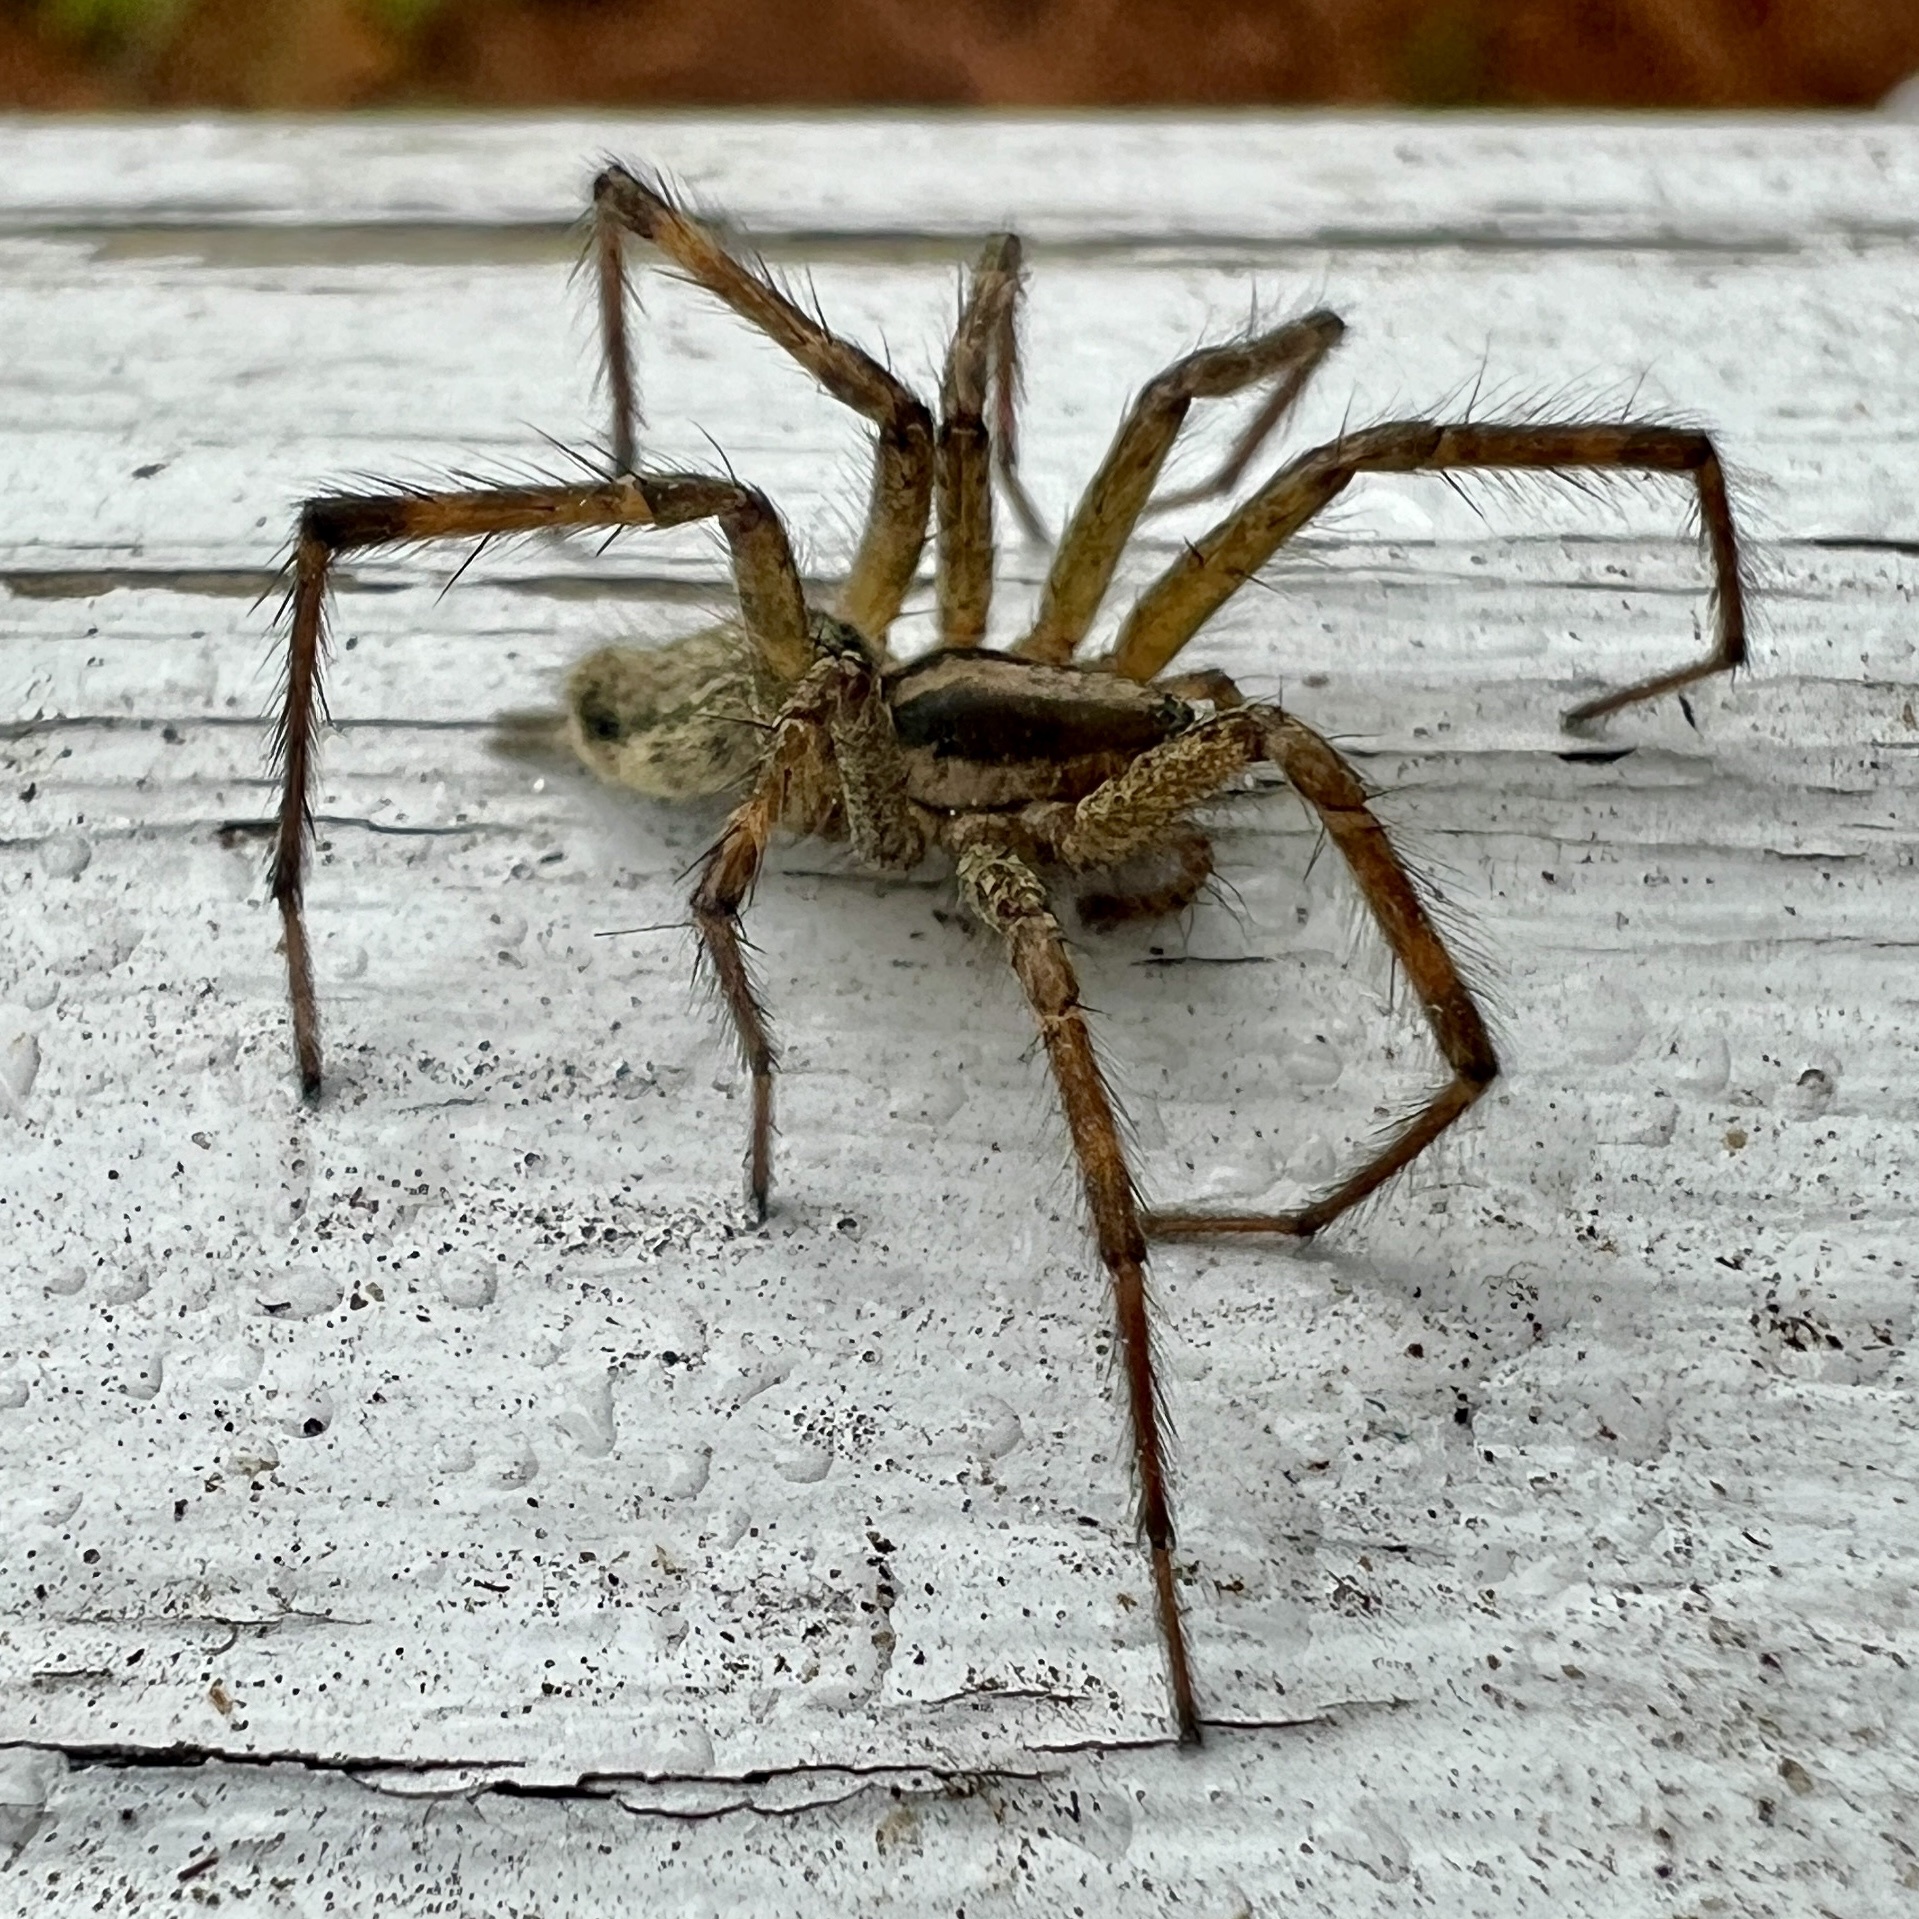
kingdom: Animalia
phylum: Arthropoda
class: Arachnida
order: Araneae
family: Agelenidae
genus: Agelenopsis
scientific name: Agelenopsis
